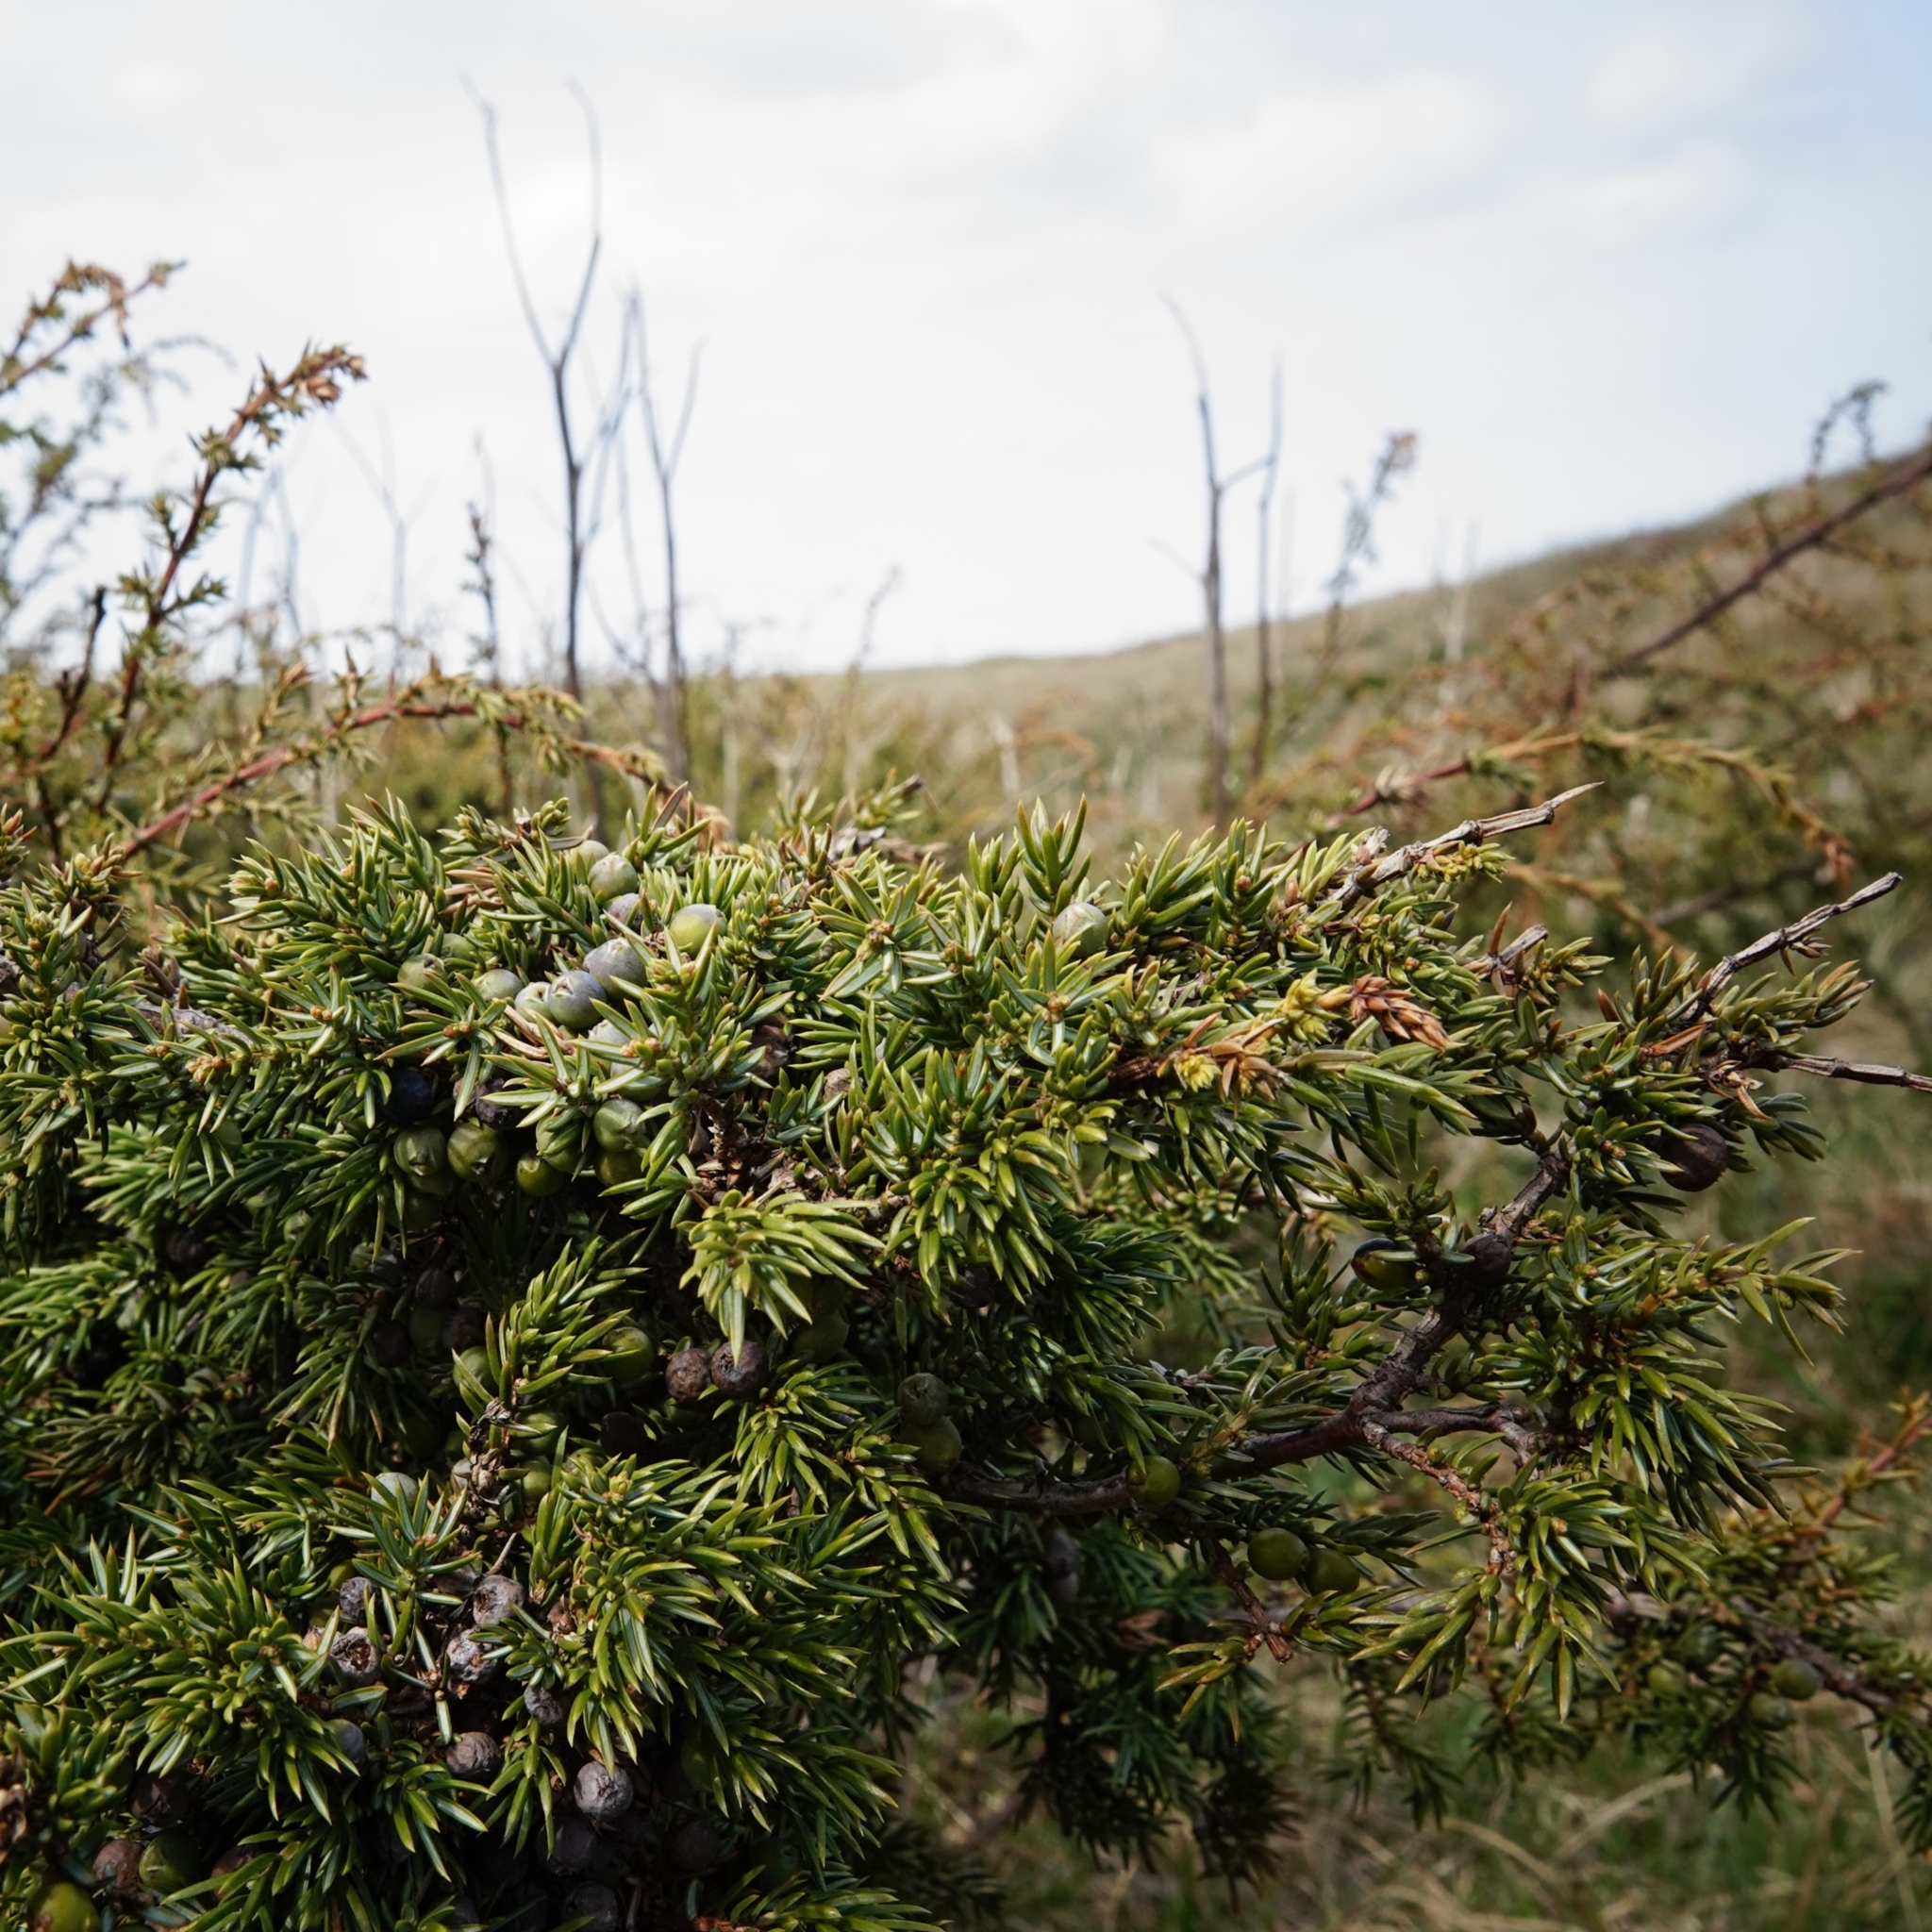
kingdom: Plantae
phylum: Tracheophyta
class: Pinopsida
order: Pinales
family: Cupressaceae
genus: Juniperus
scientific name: Juniperus communis
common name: Common juniper
